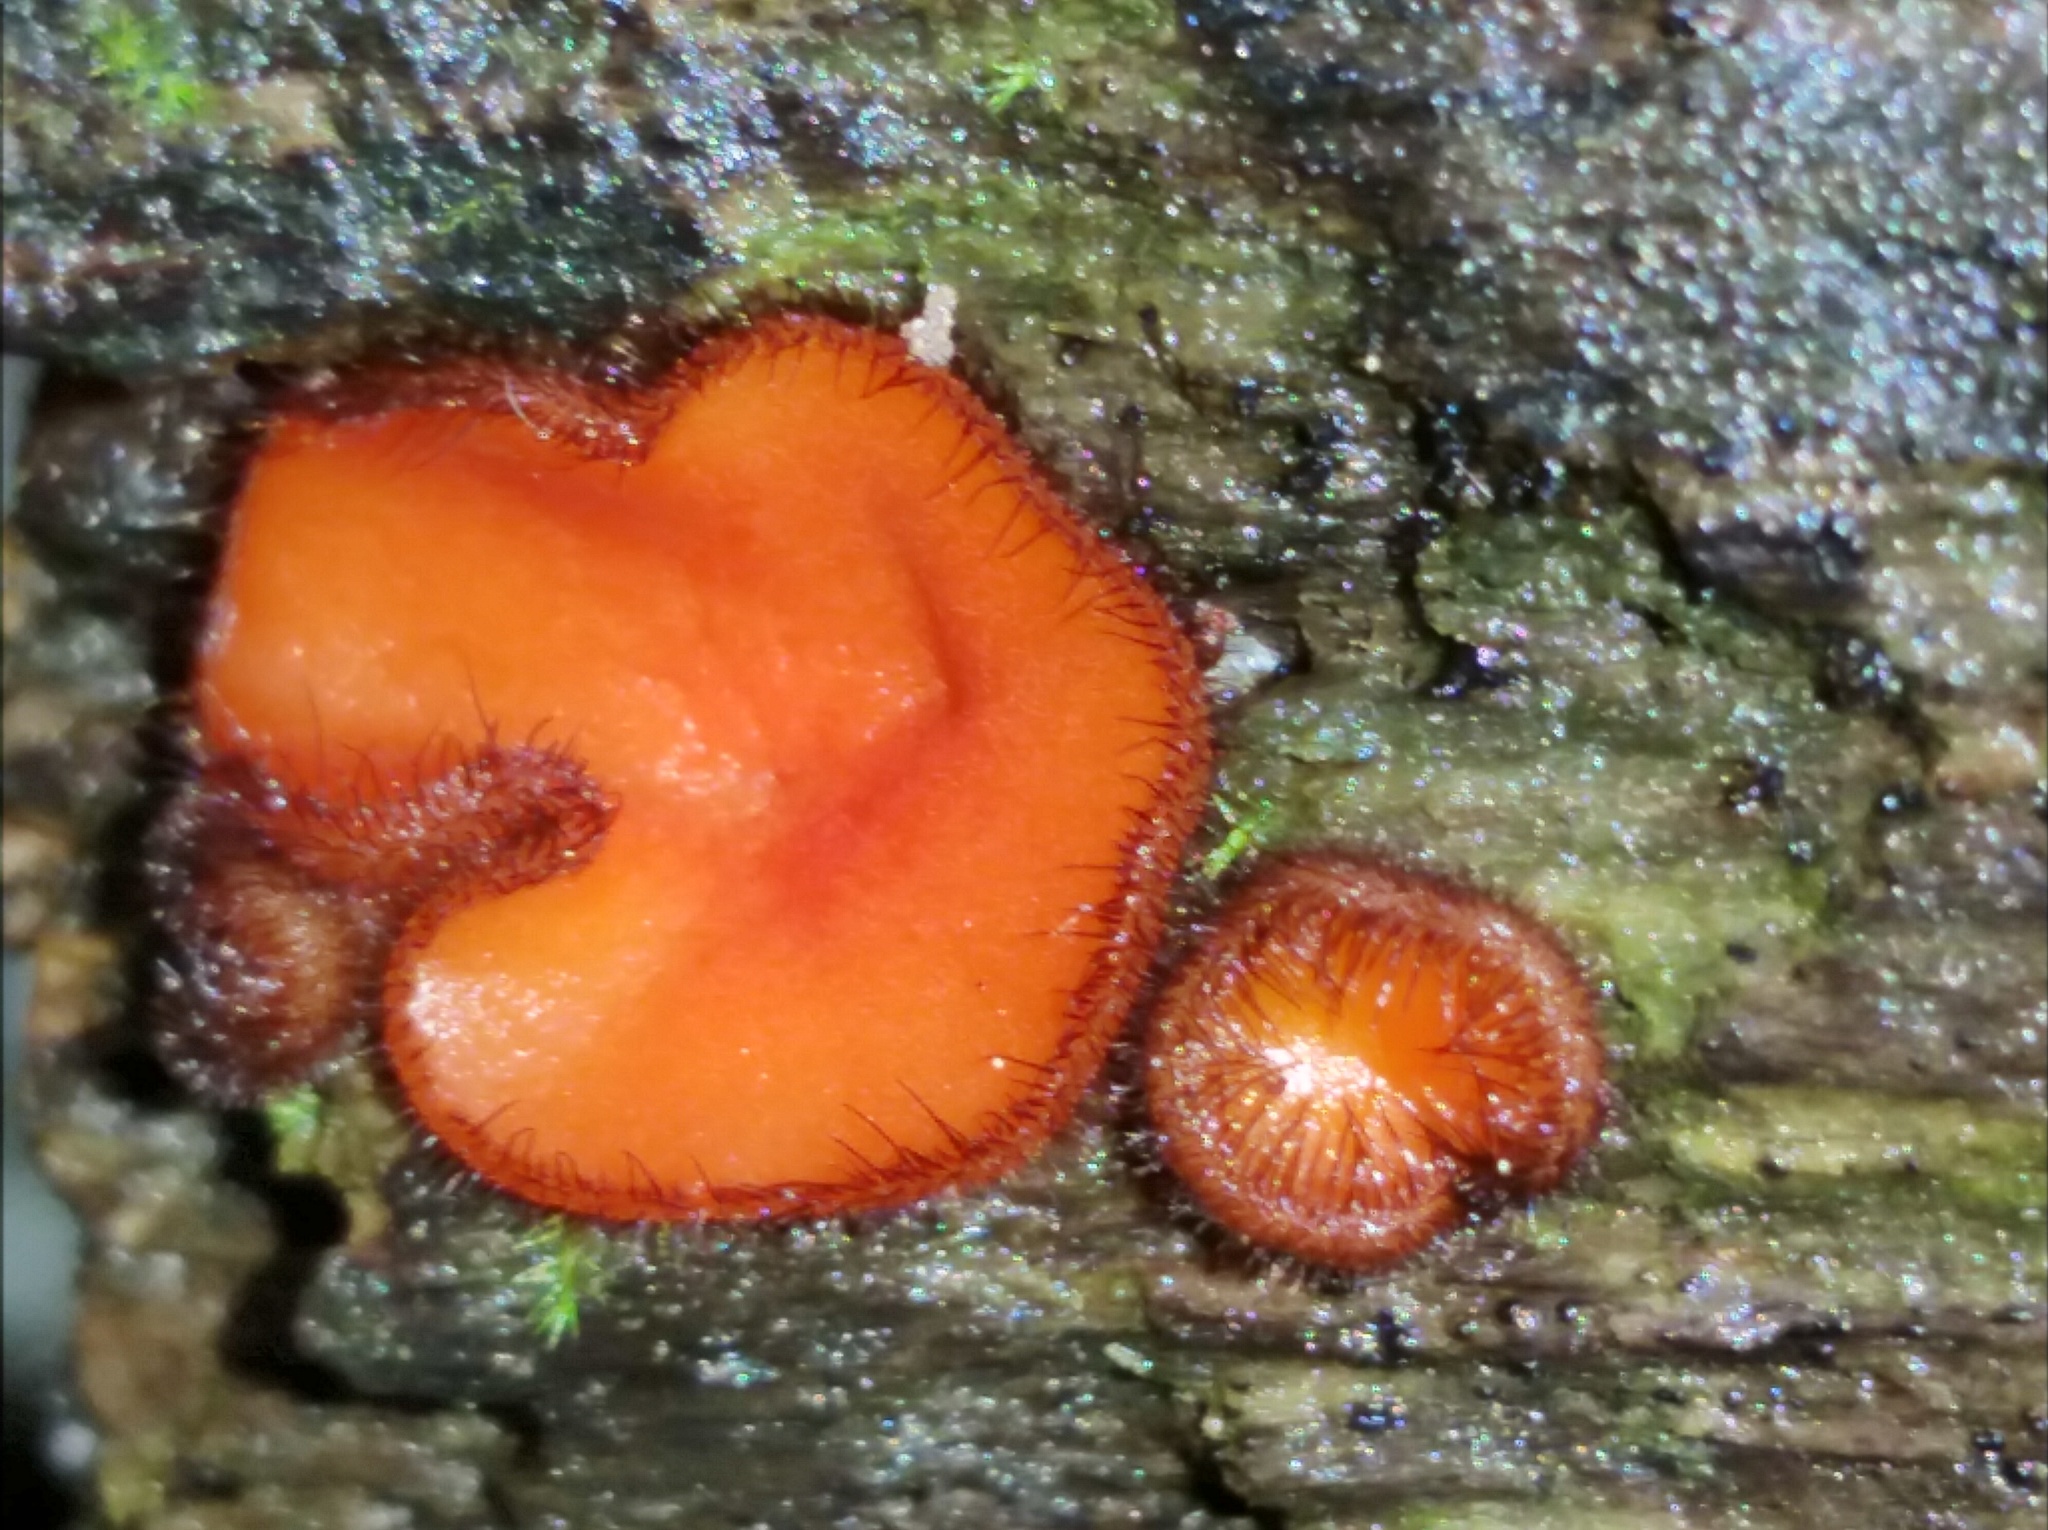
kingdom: Fungi
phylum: Ascomycota
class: Pezizomycetes
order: Pezizales
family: Pyronemataceae
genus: Scutellinia
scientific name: Scutellinia scutellata
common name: Common eyelash
